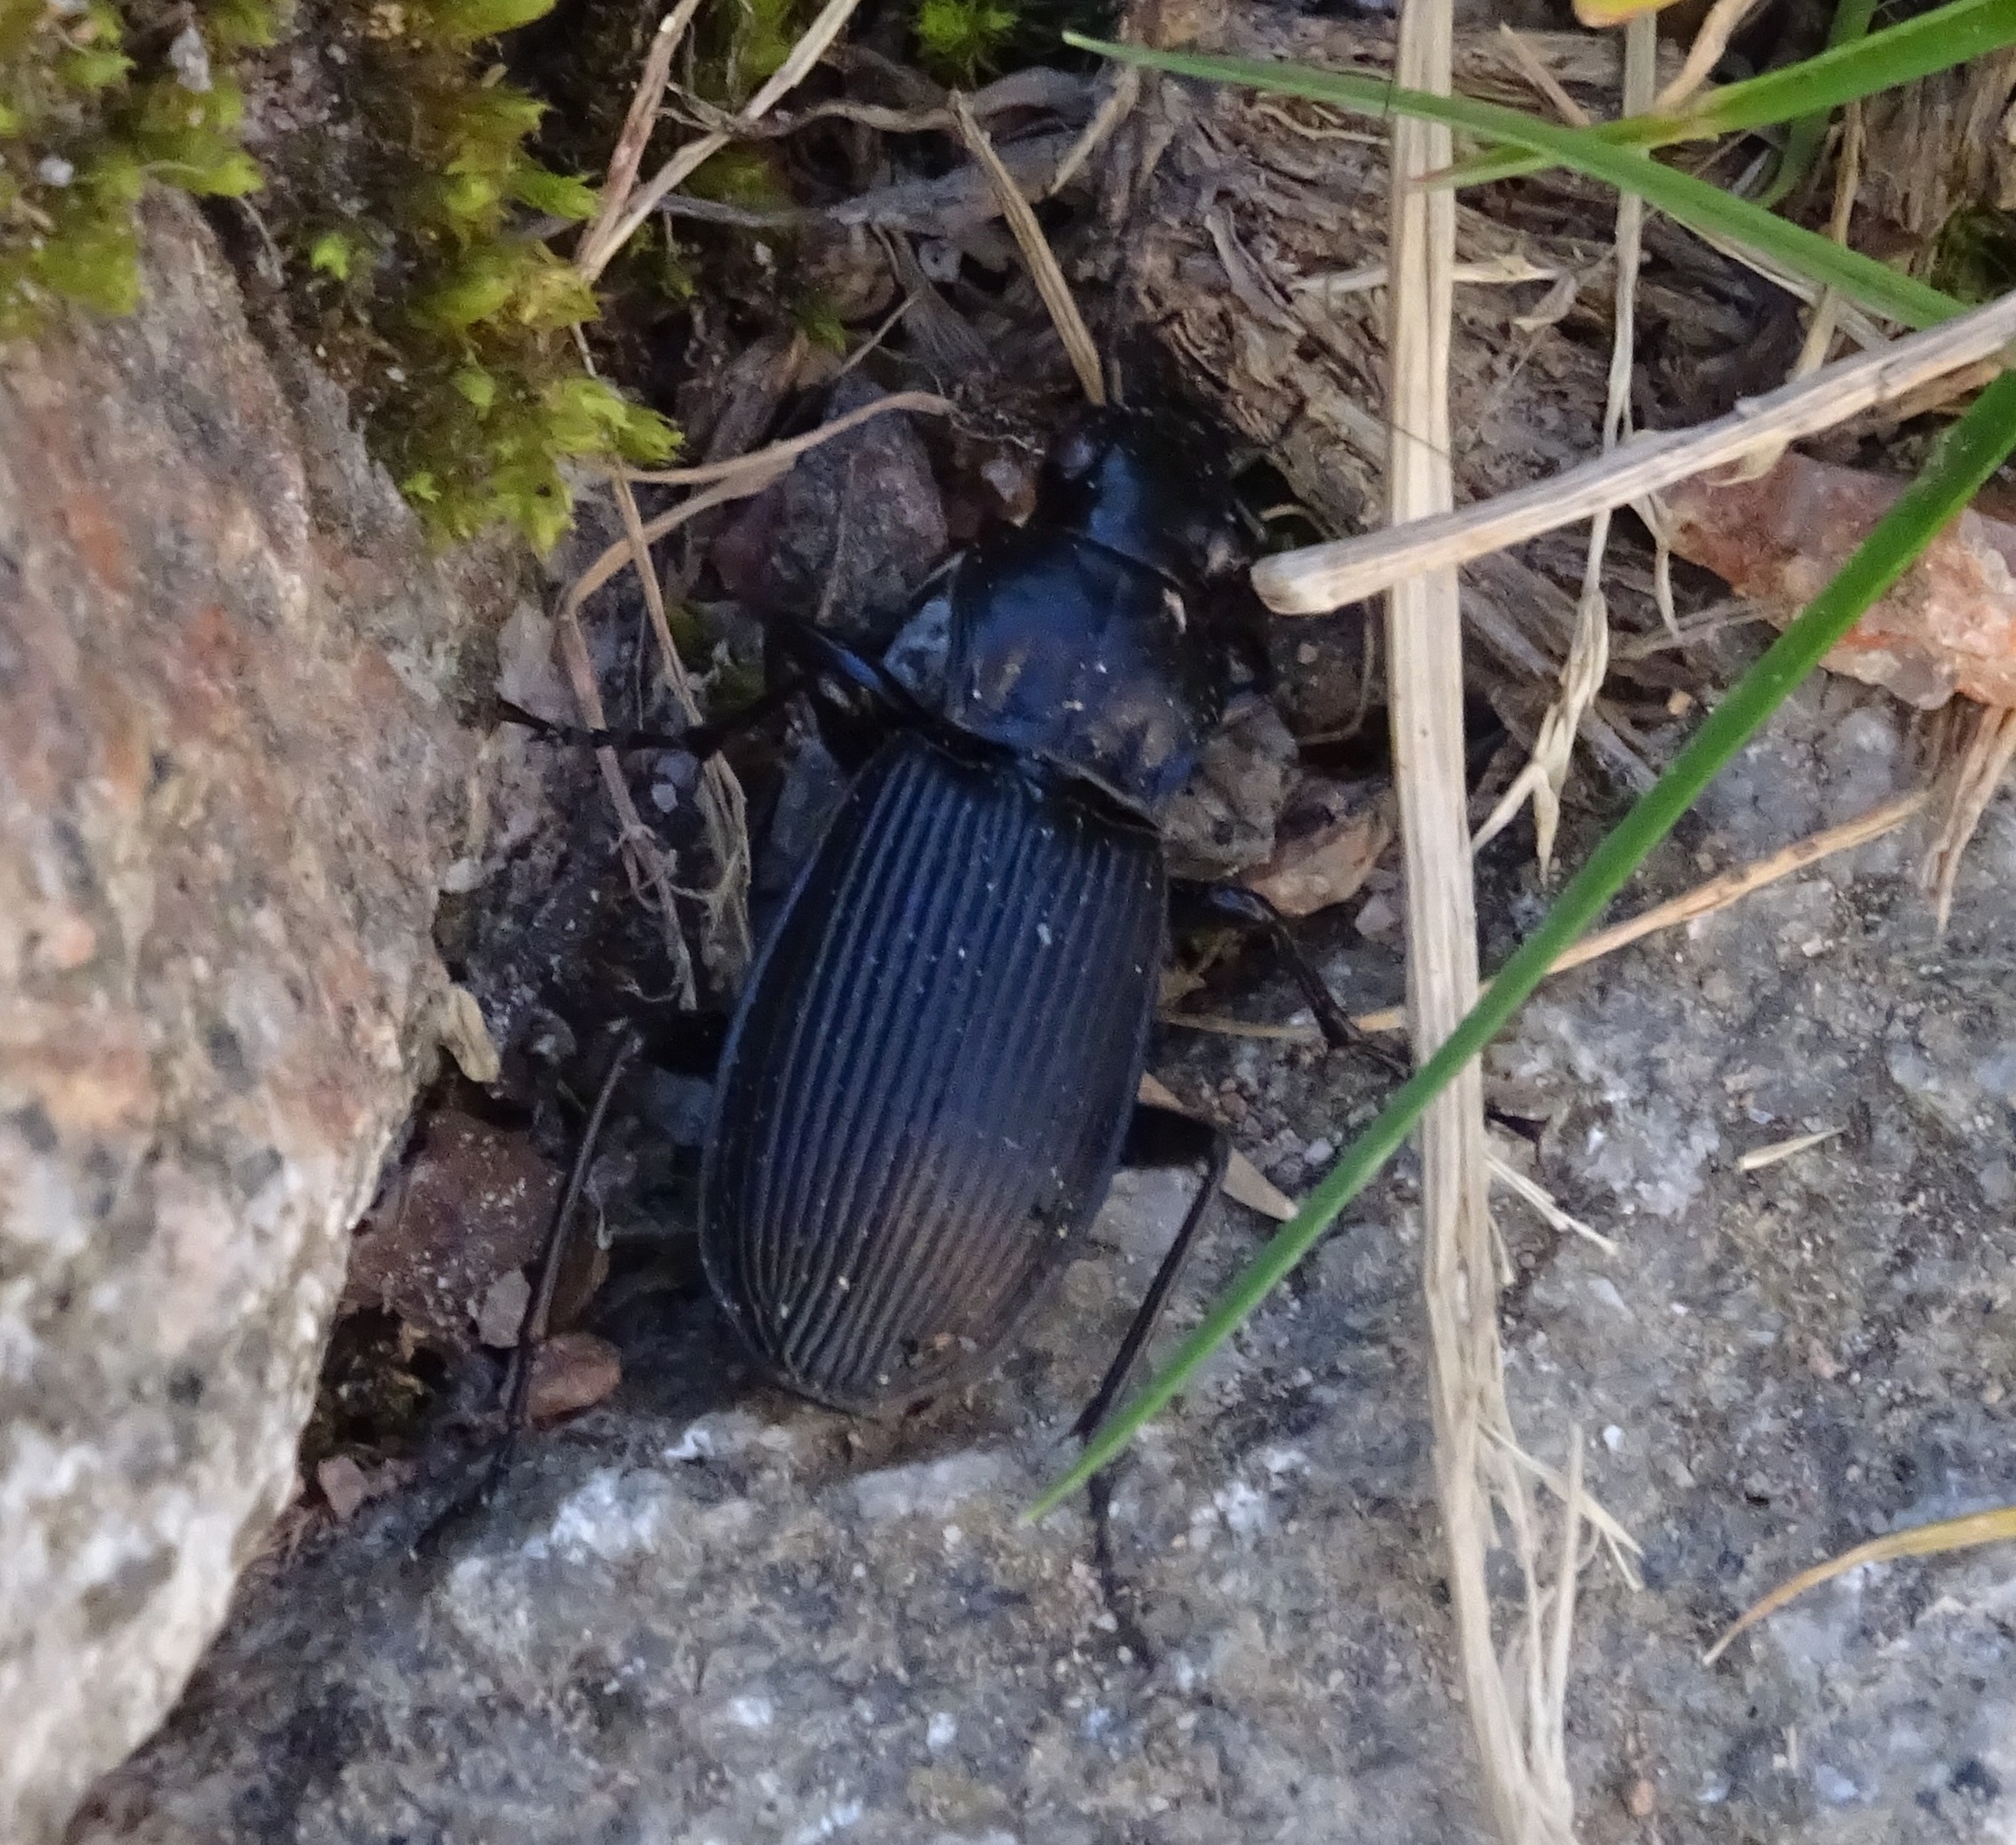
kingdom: Animalia
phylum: Arthropoda
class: Insecta
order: Coleoptera
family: Carabidae
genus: Pterostichus
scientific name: Pterostichus niger
